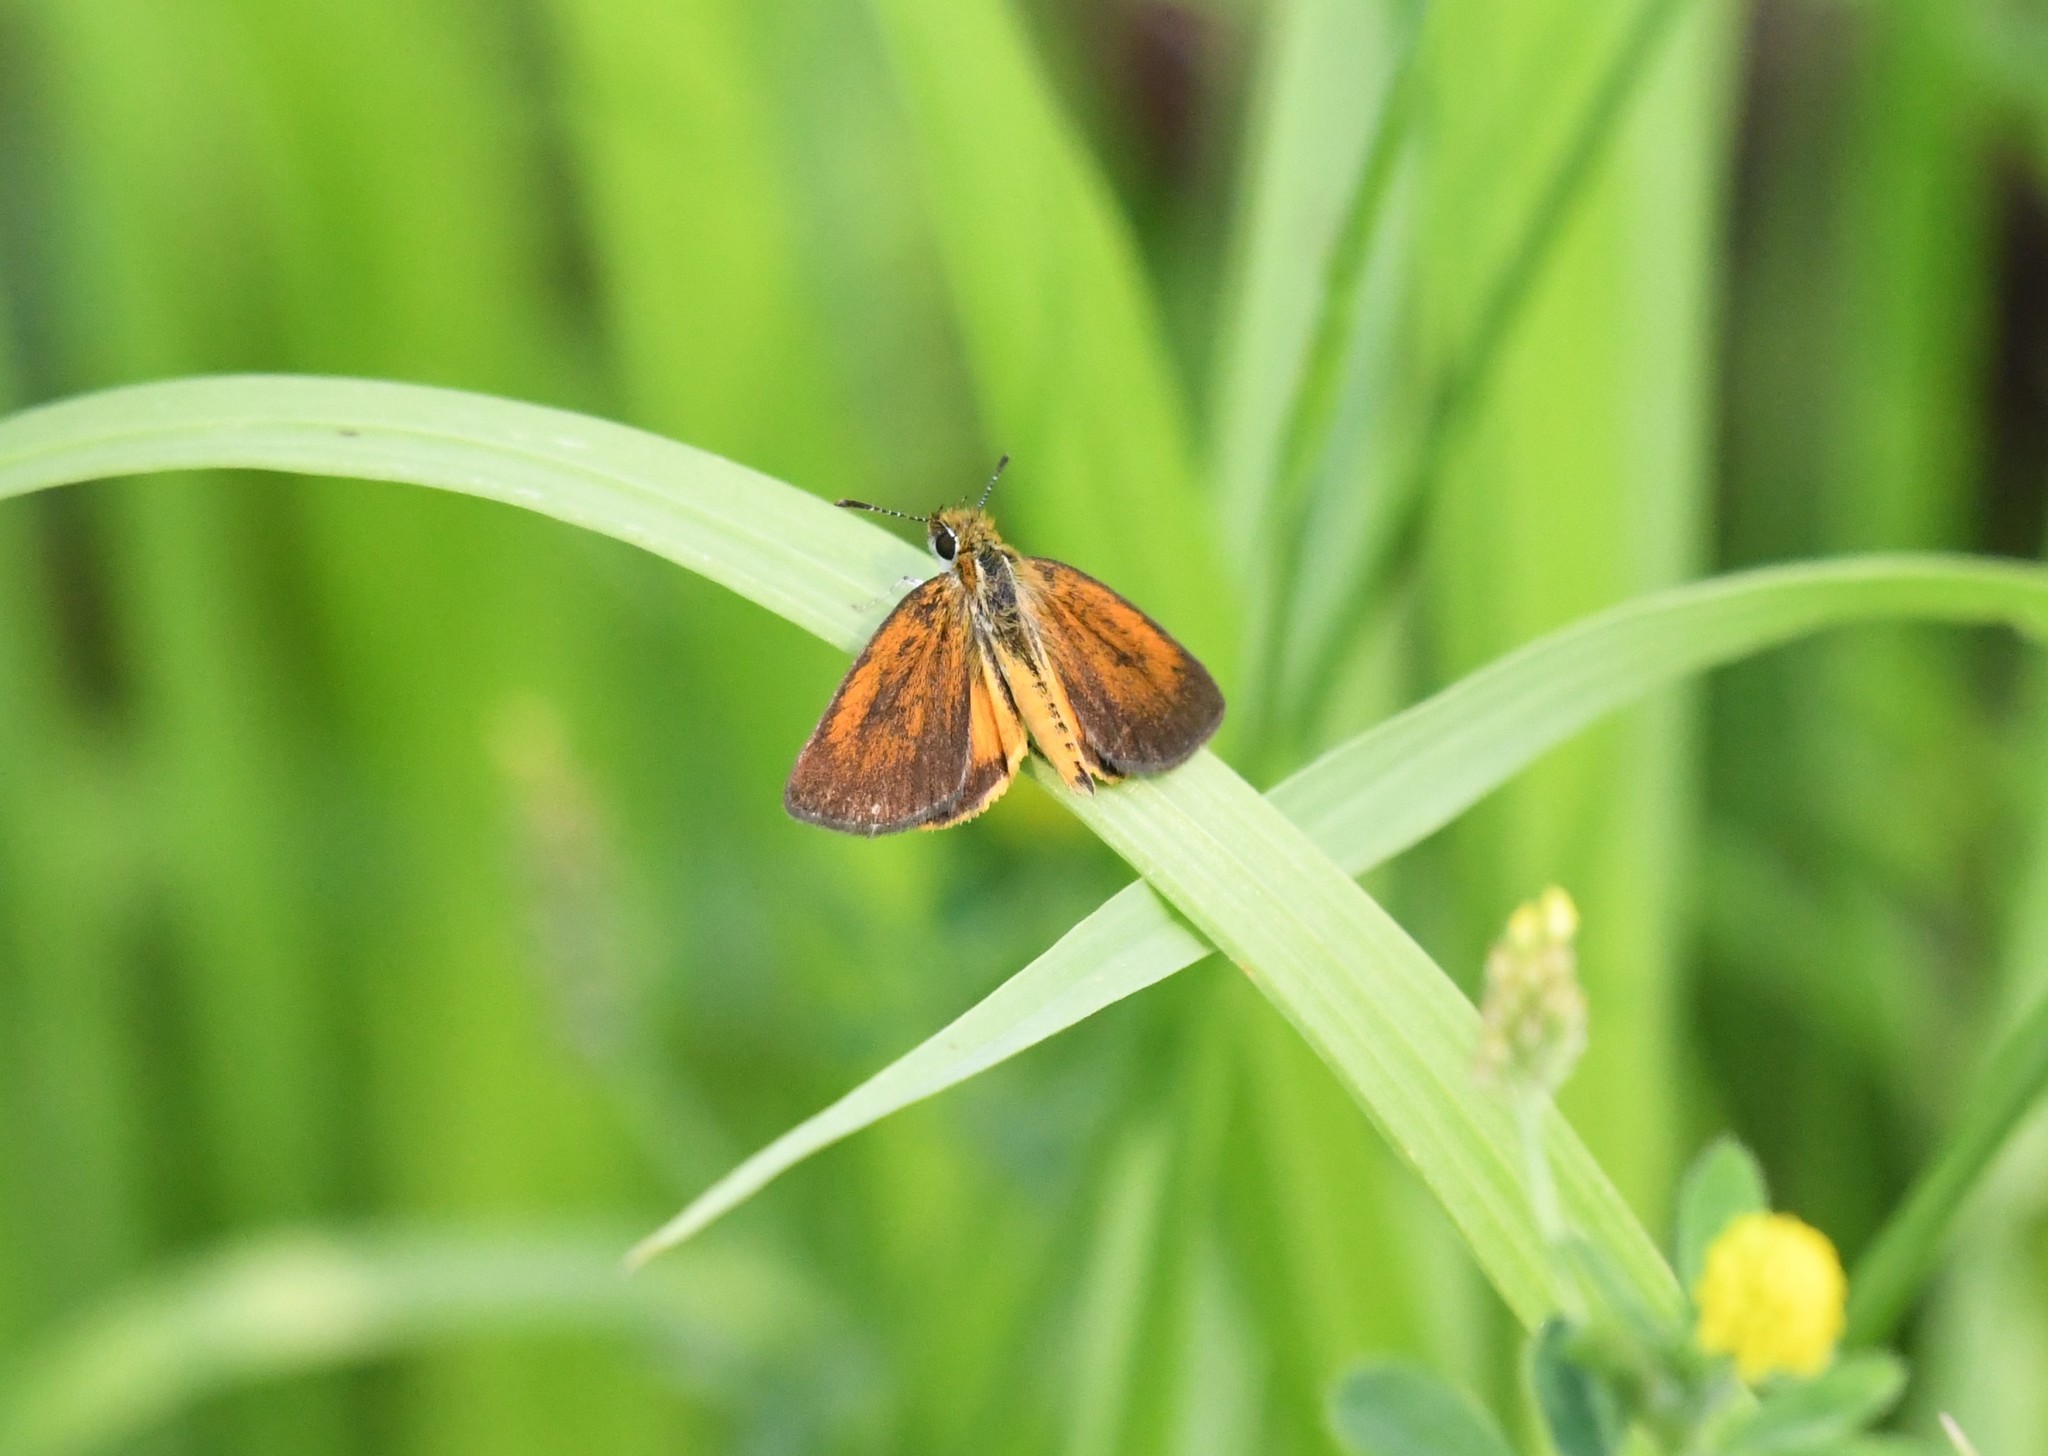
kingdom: Animalia
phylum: Arthropoda
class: Insecta
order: Lepidoptera
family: Hesperiidae
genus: Ancyloxypha
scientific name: Ancyloxypha numitor
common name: Least skipper
